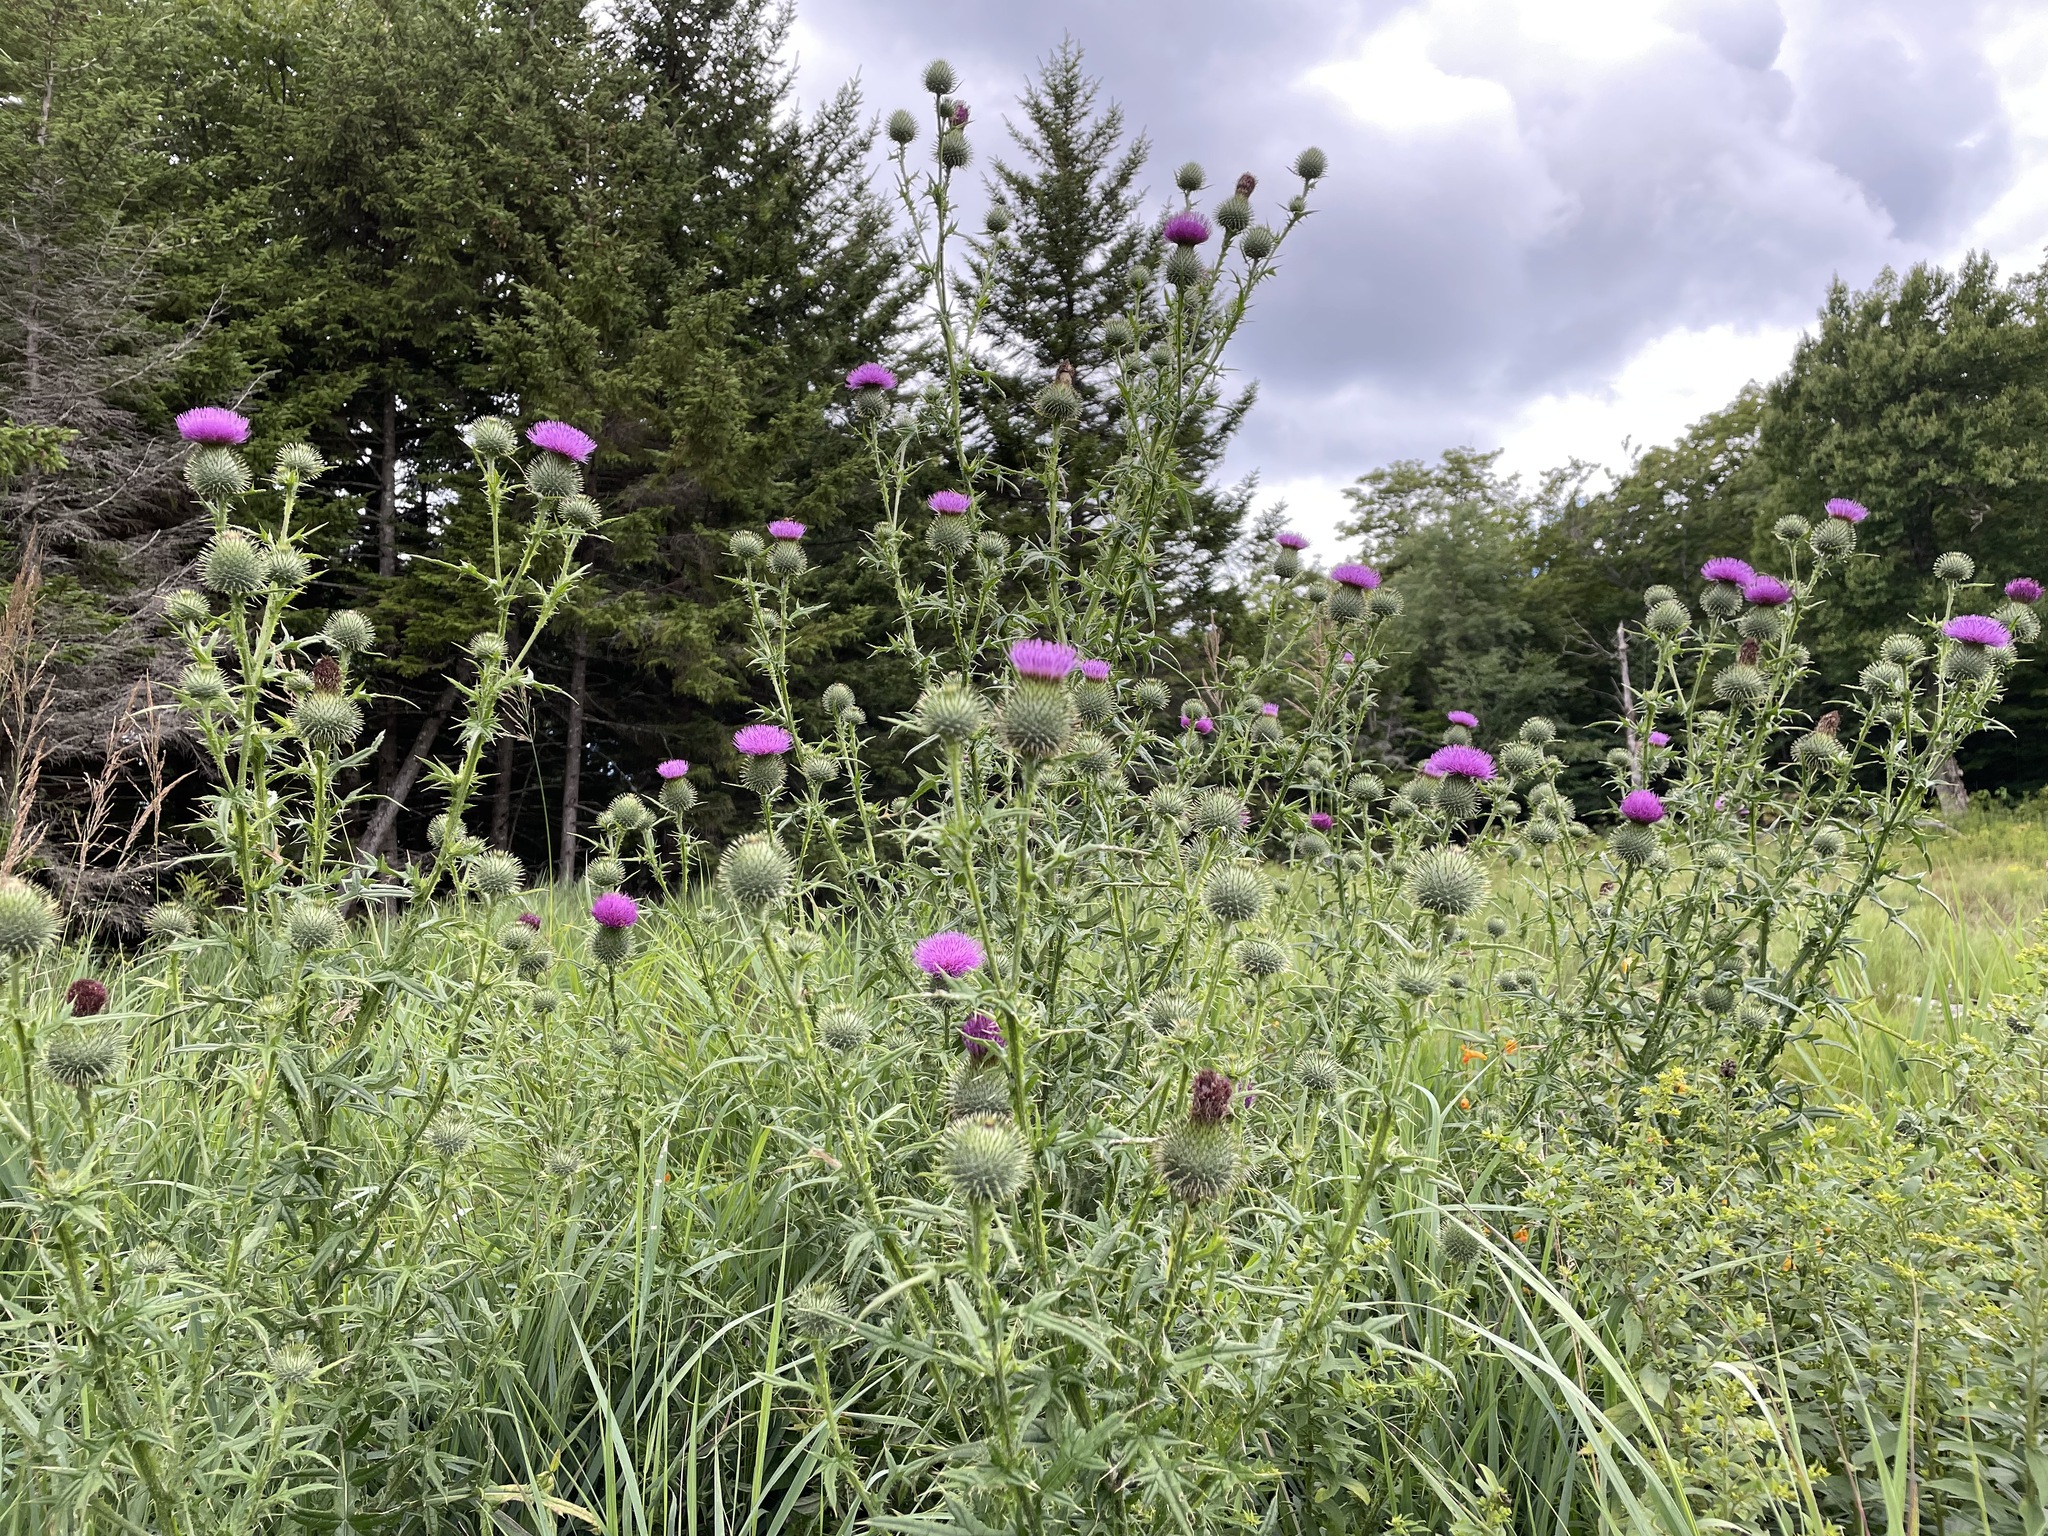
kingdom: Plantae
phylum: Tracheophyta
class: Magnoliopsida
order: Asterales
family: Asteraceae
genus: Cirsium
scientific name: Cirsium vulgare
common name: Bull thistle
